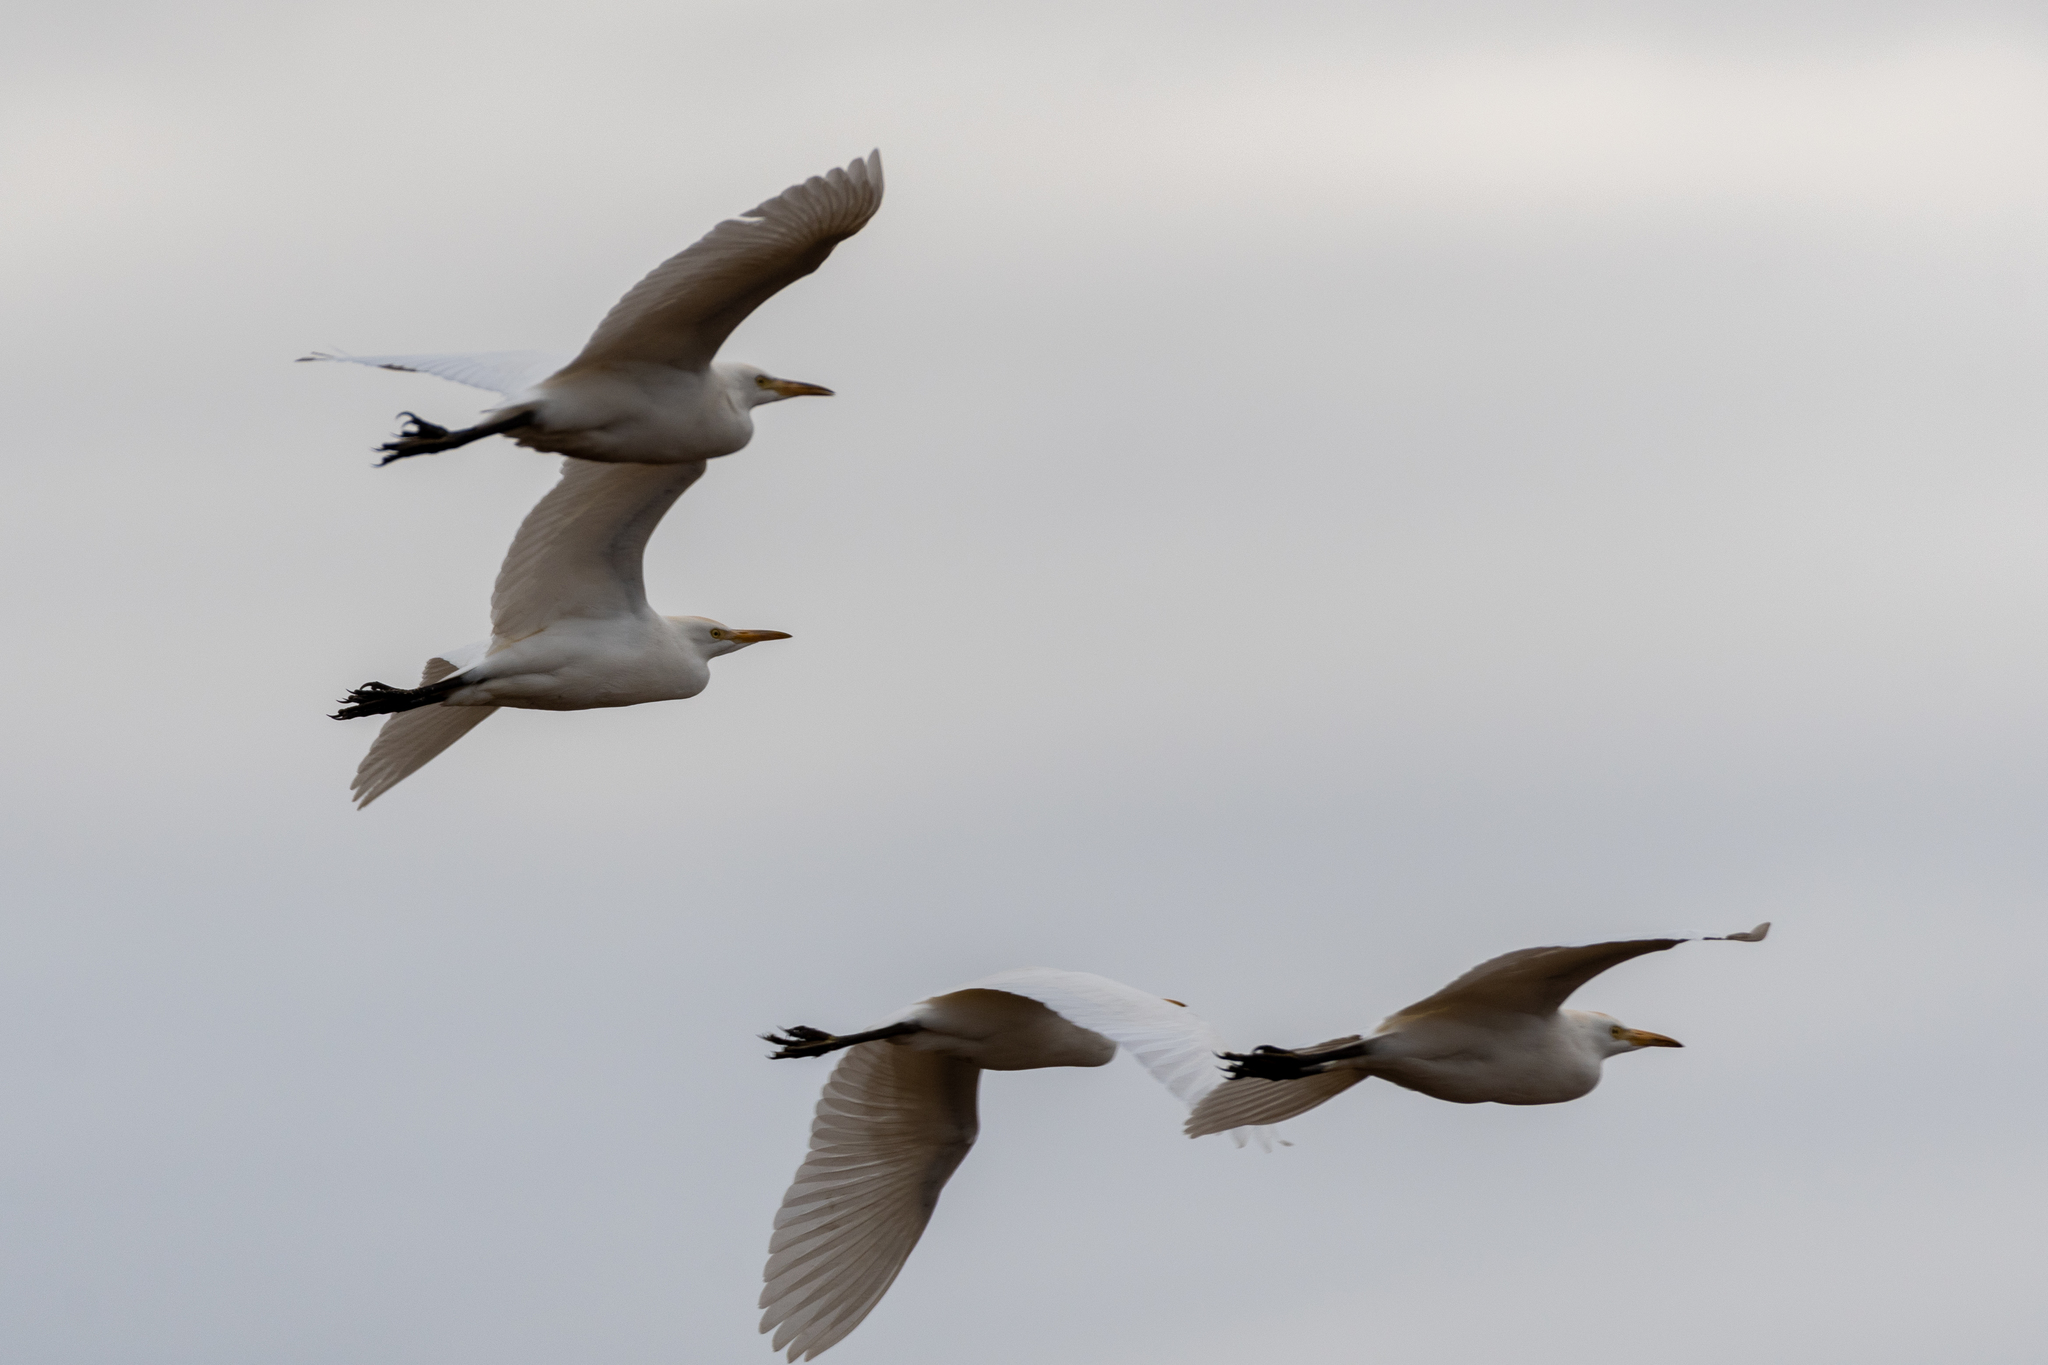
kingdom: Animalia
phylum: Chordata
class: Aves
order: Pelecaniformes
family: Ardeidae
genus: Bubulcus
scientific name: Bubulcus ibis
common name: Cattle egret
